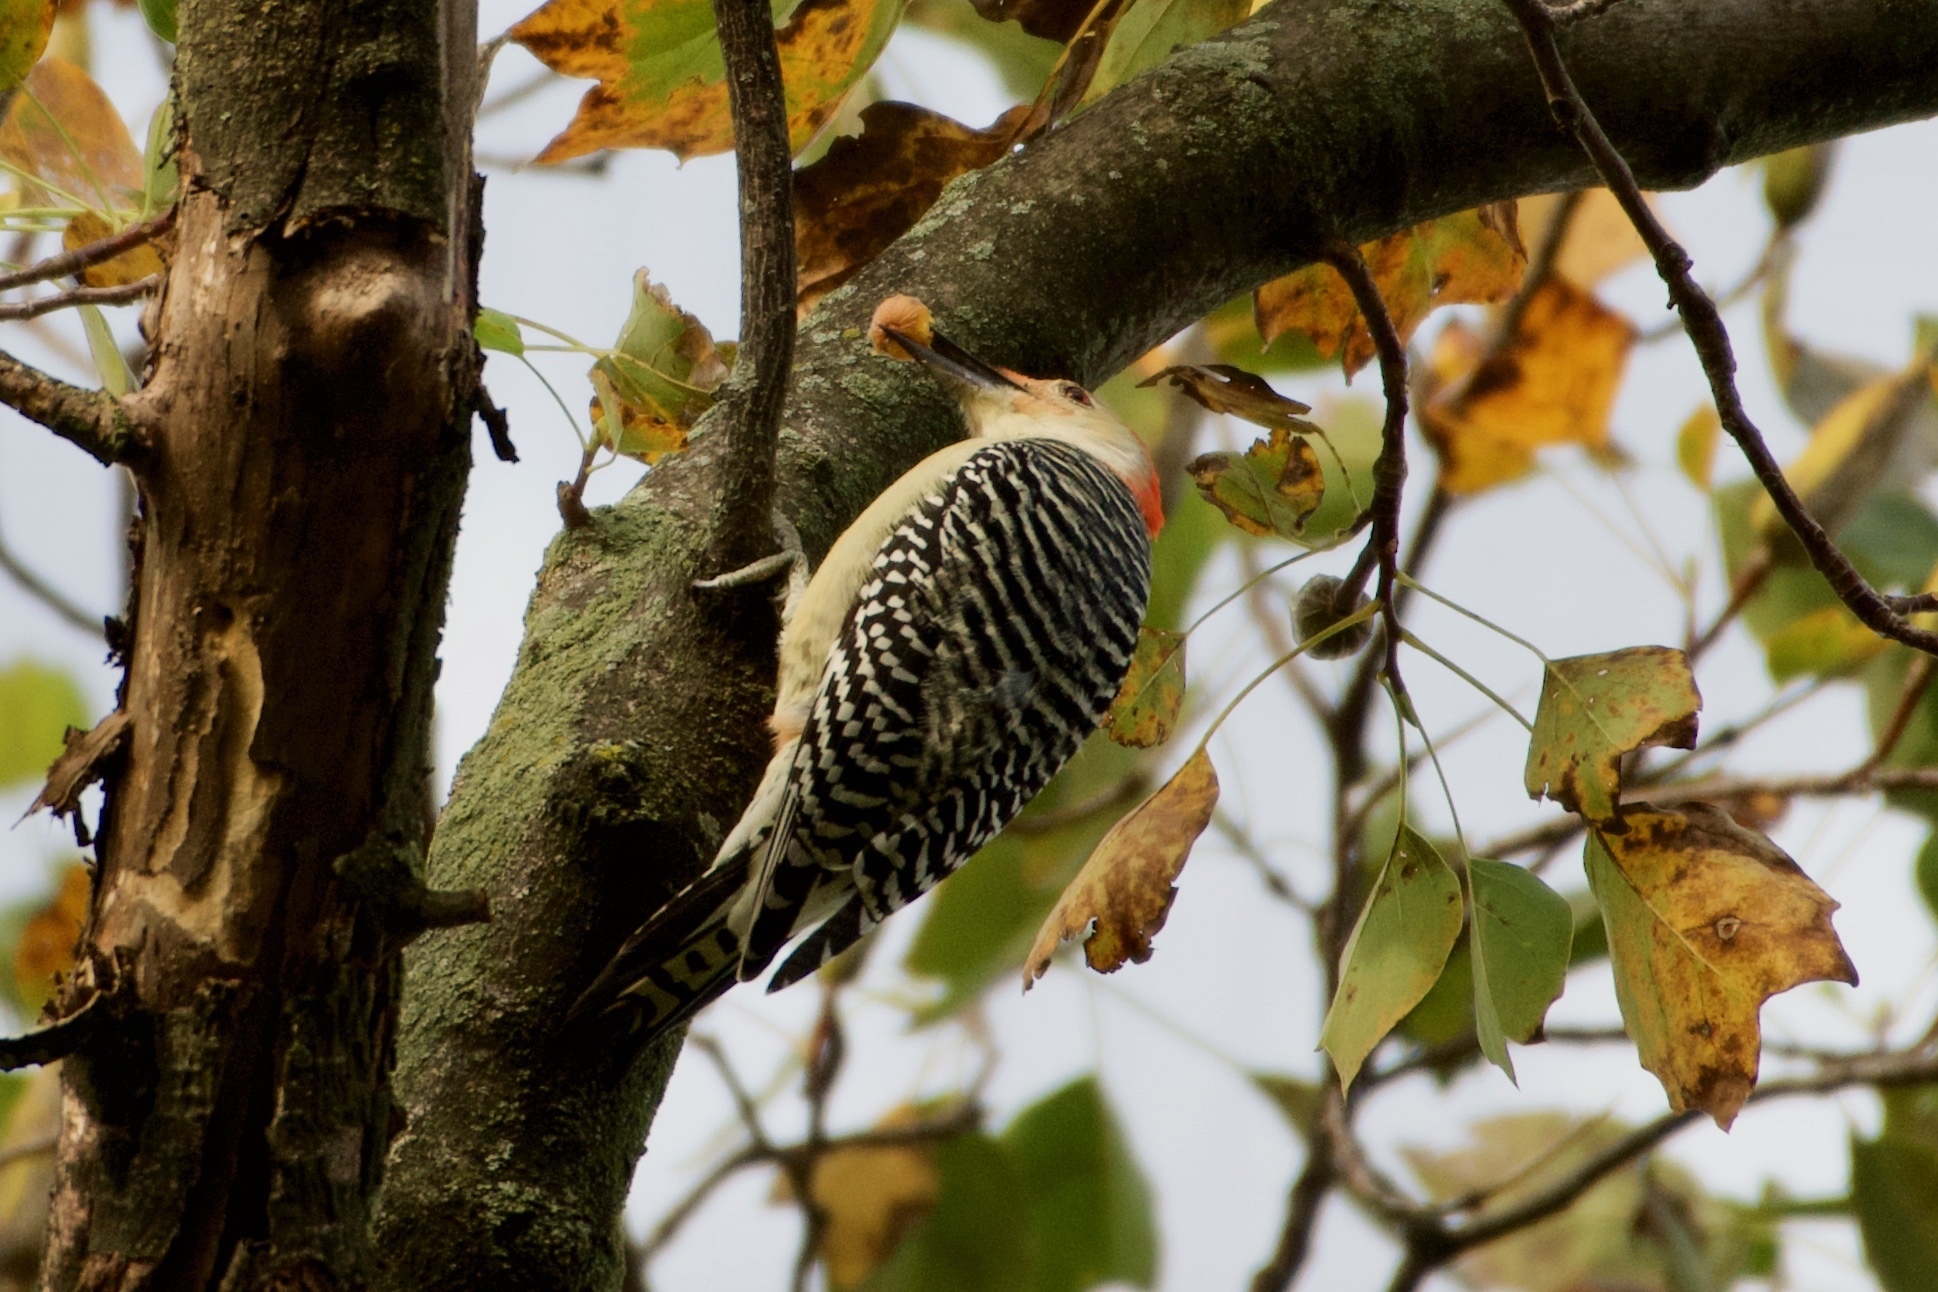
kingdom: Animalia
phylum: Chordata
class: Aves
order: Piciformes
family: Picidae
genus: Melanerpes
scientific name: Melanerpes carolinus
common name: Red-bellied woodpecker
